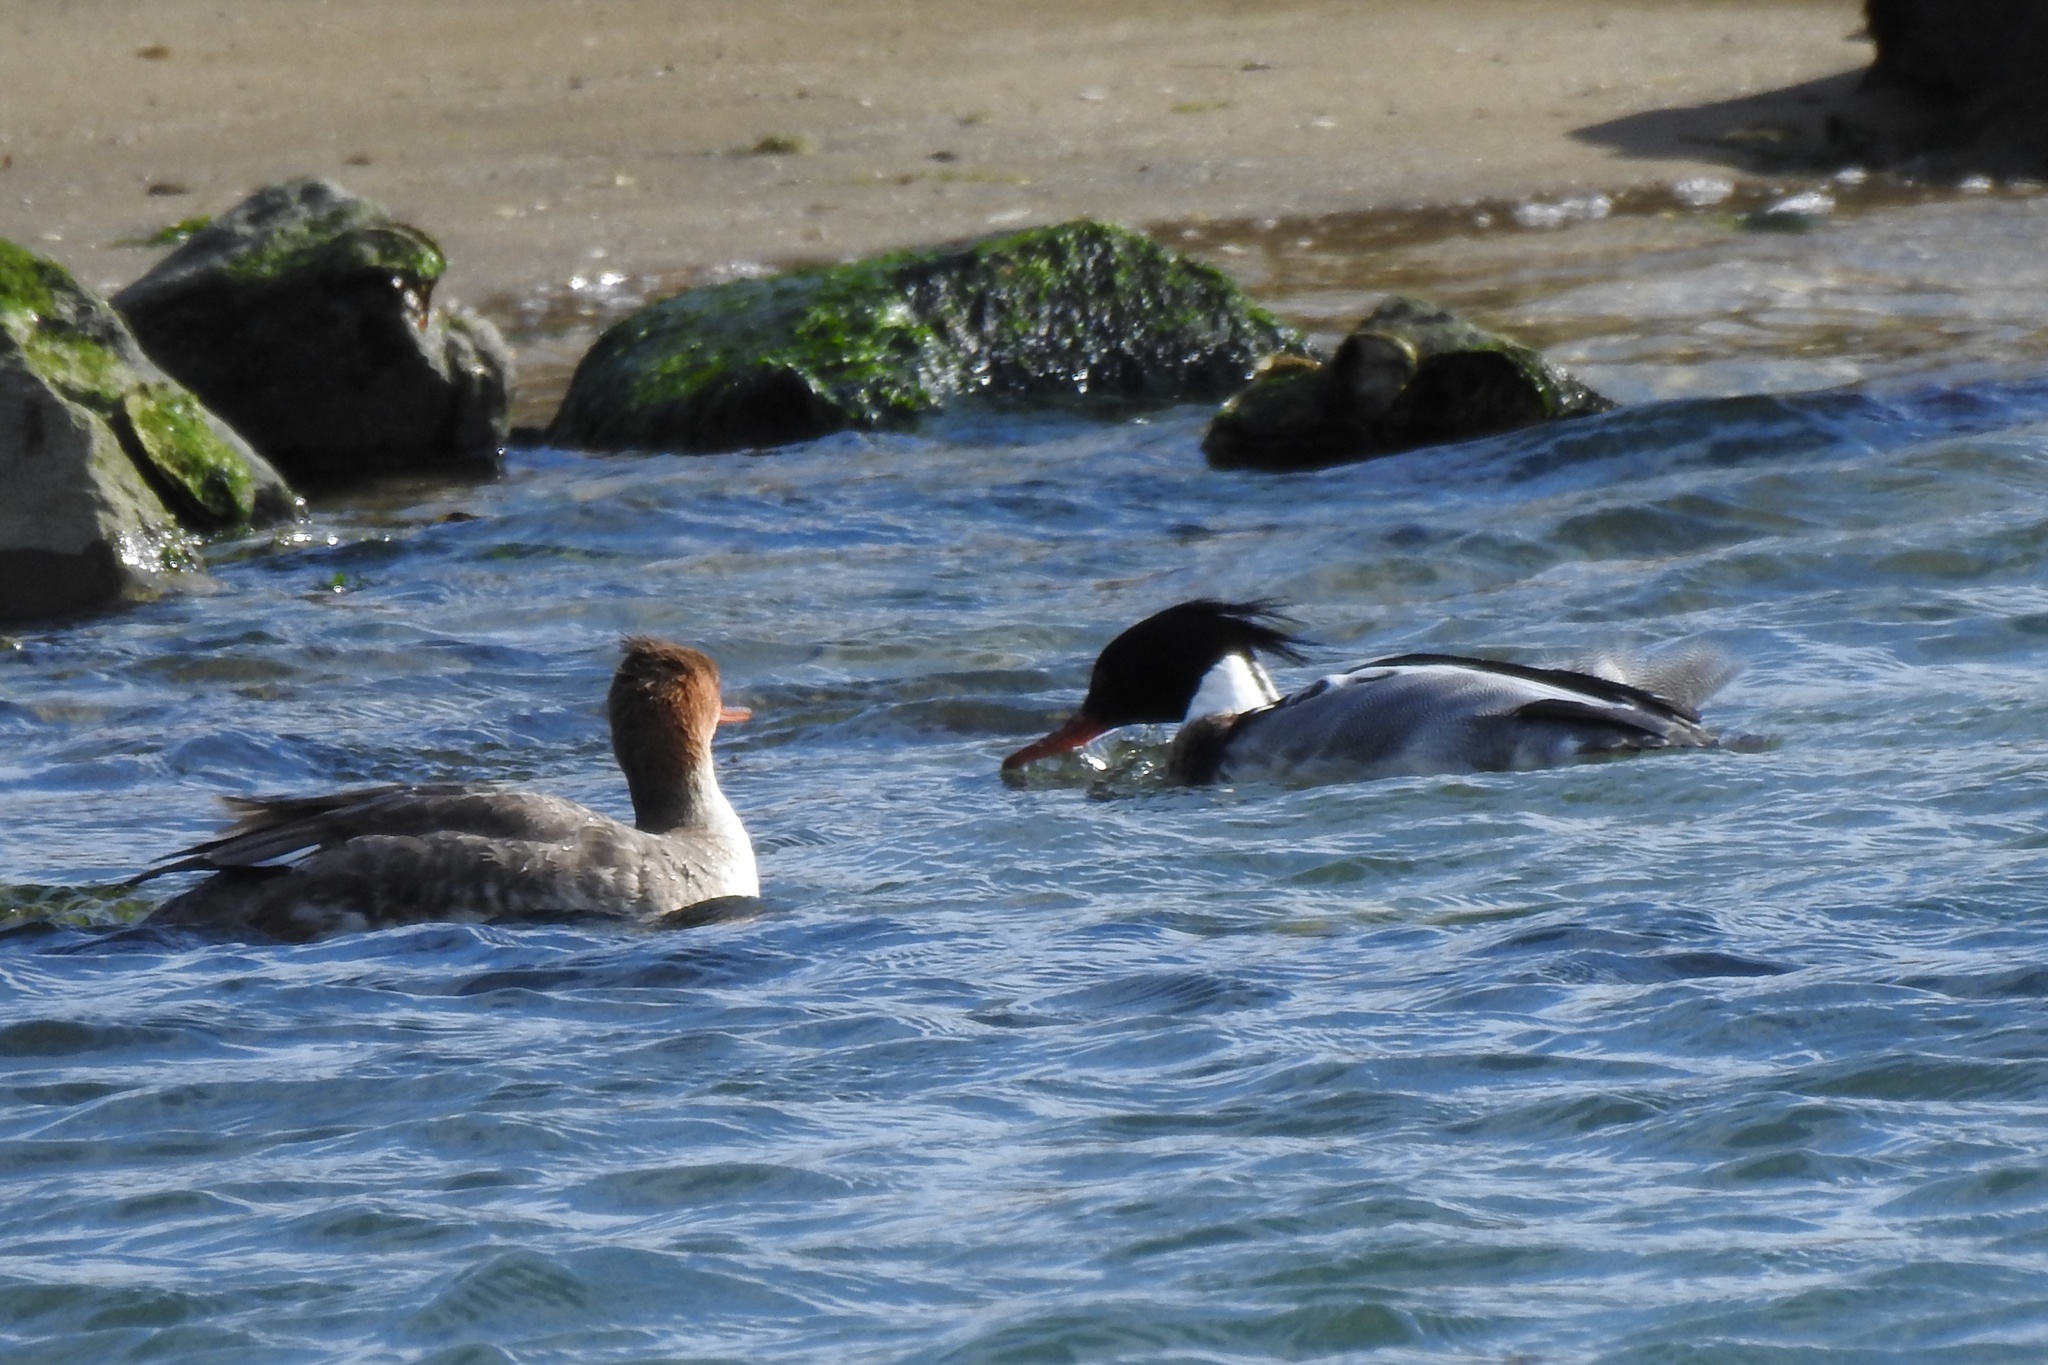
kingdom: Animalia
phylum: Chordata
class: Aves
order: Anseriformes
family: Anatidae
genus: Mergus
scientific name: Mergus serrator
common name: Red-breasted merganser
